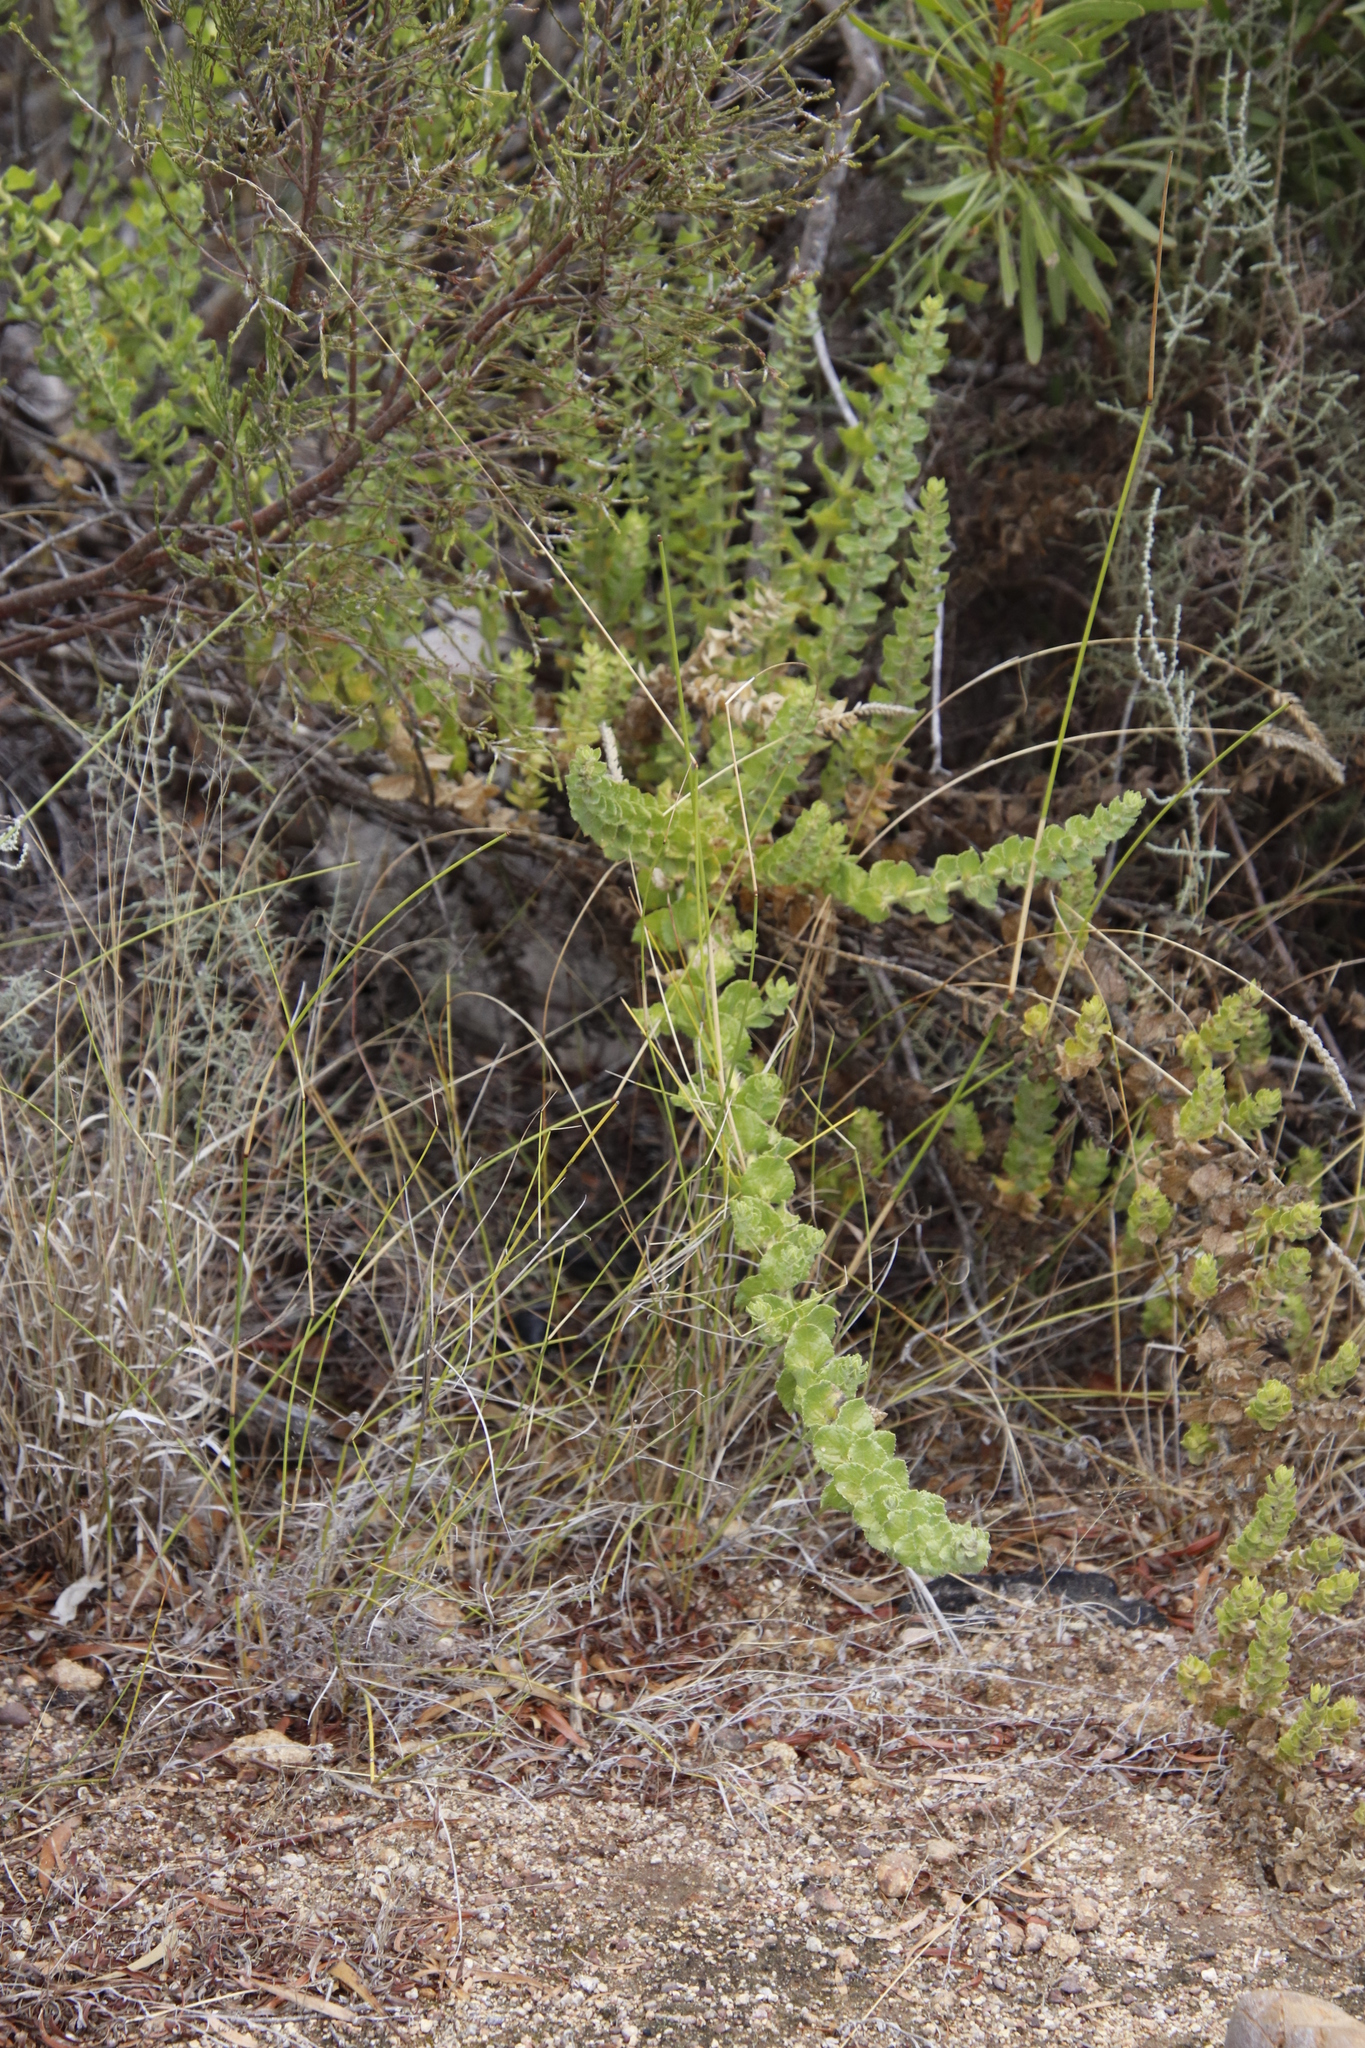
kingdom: Plantae
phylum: Tracheophyta
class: Magnoliopsida
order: Lamiales
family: Scrophulariaceae
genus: Oftia
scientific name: Oftia africana
